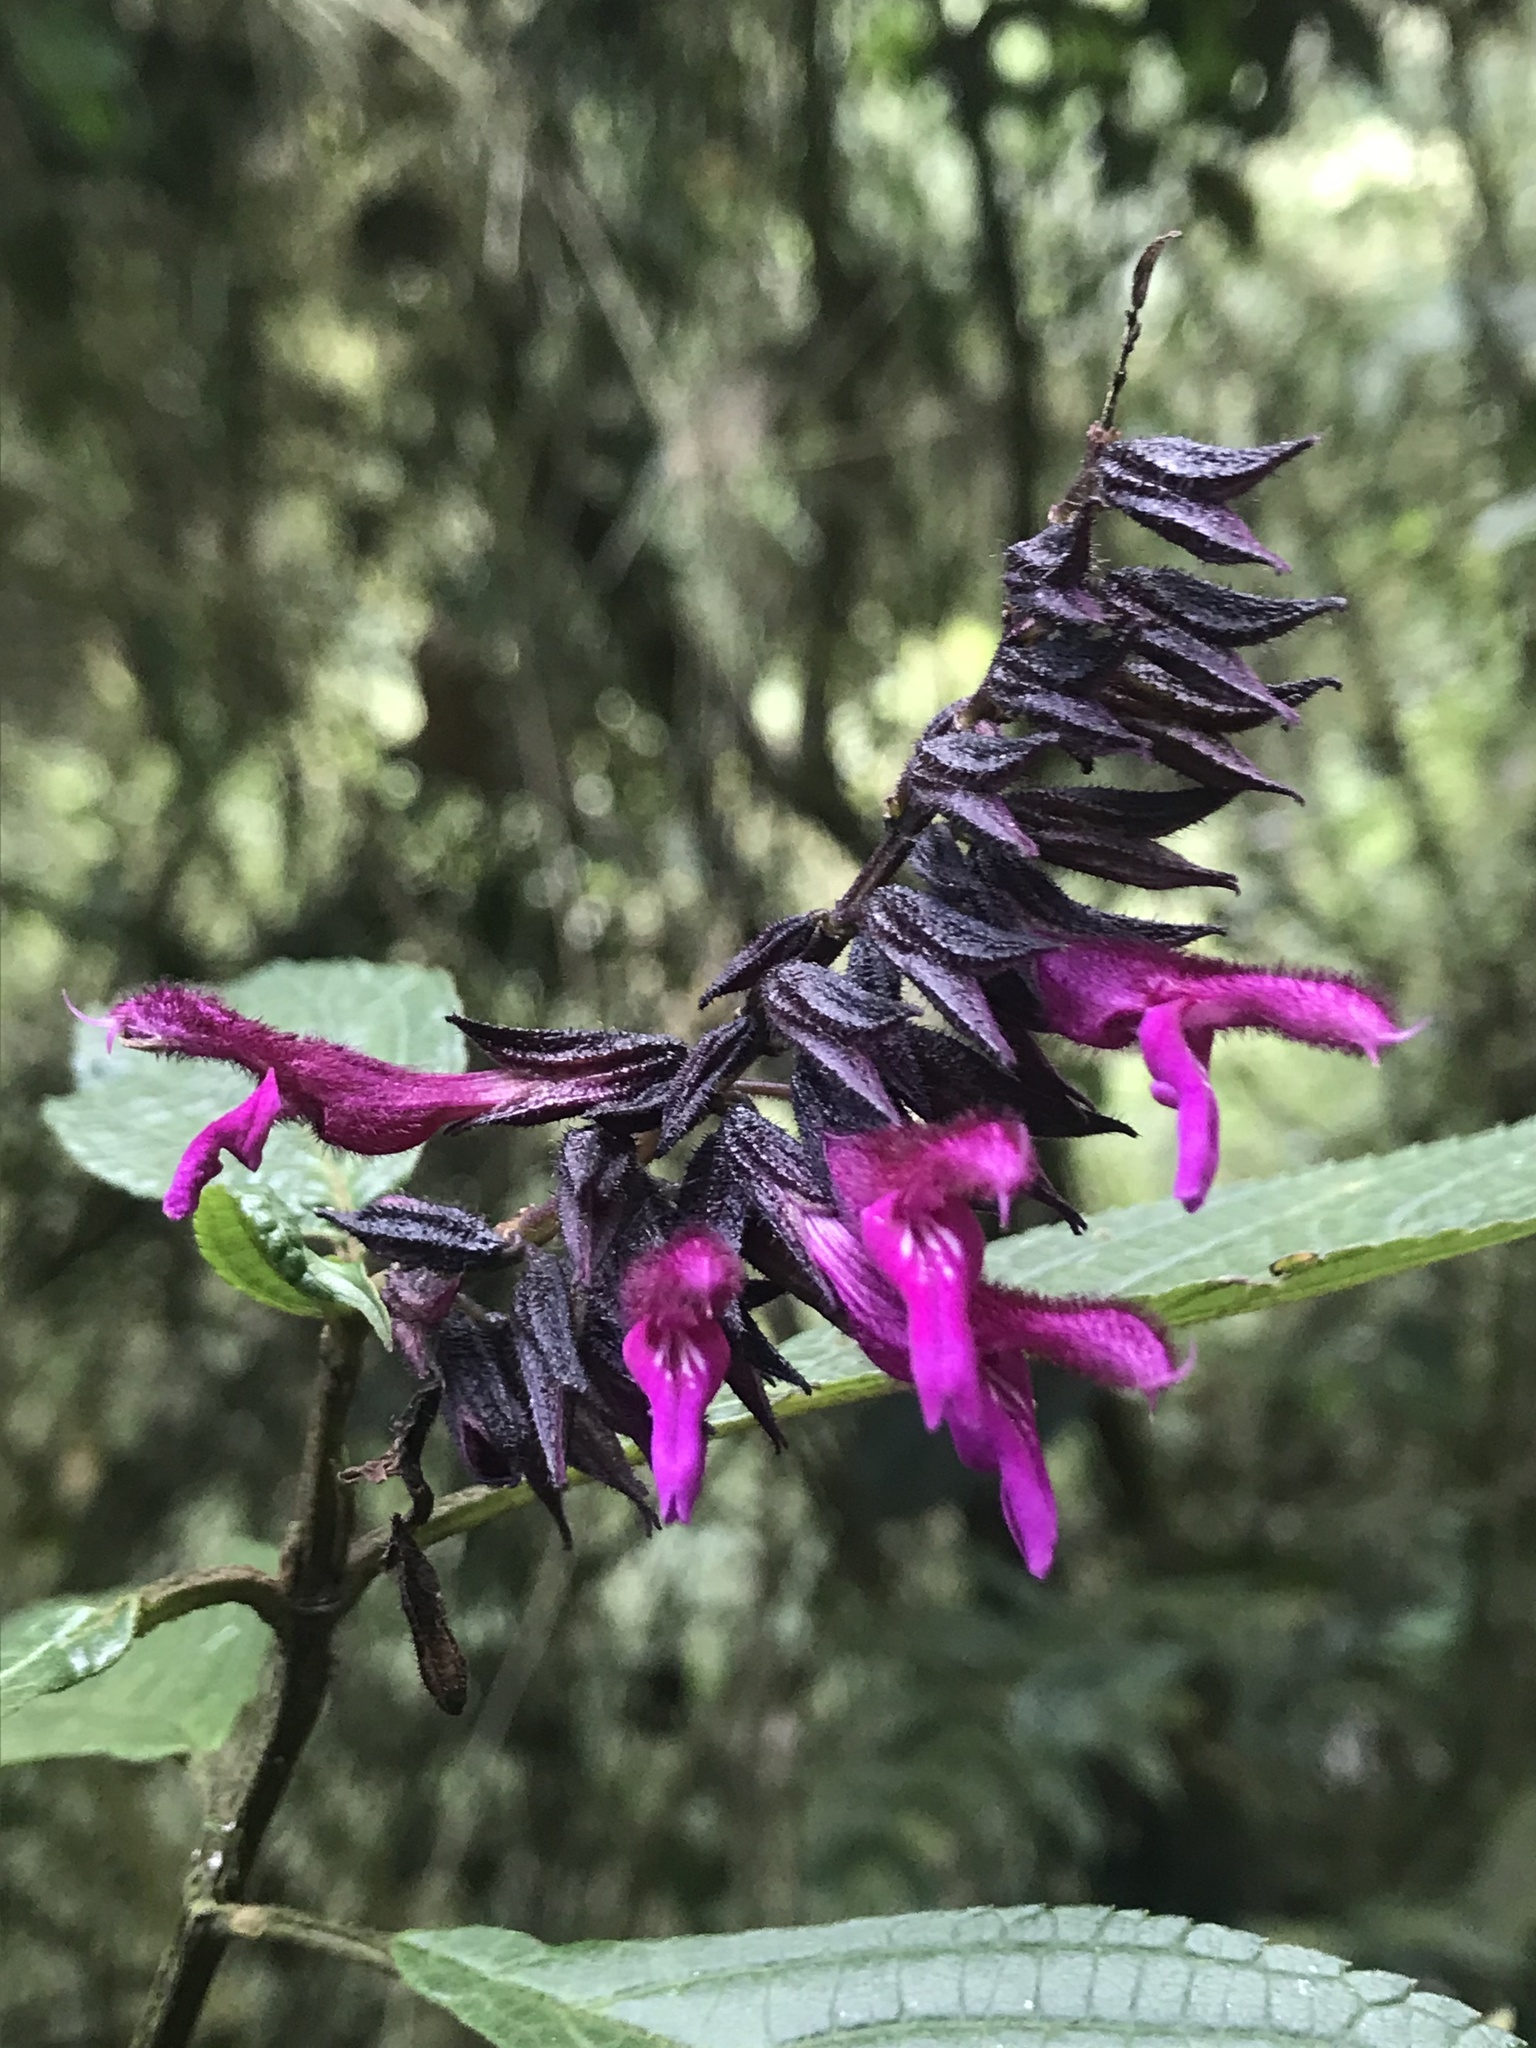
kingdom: Plantae
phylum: Tracheophyta
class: Magnoliopsida
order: Lamiales
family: Lamiaceae
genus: Salvia
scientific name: Salvia guacana
